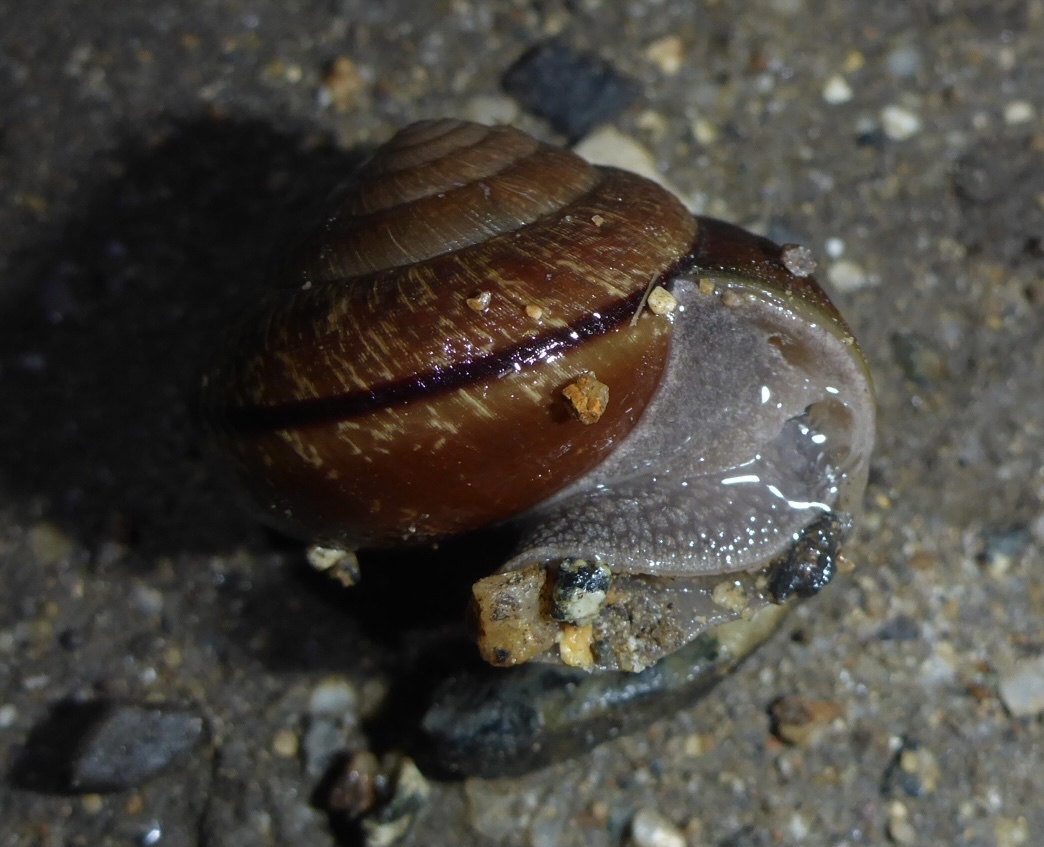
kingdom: Animalia
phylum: Mollusca
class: Gastropoda
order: Stylommatophora
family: Xanthonychidae
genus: Helminthoglypta
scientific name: Helminthoglypta arrosa
